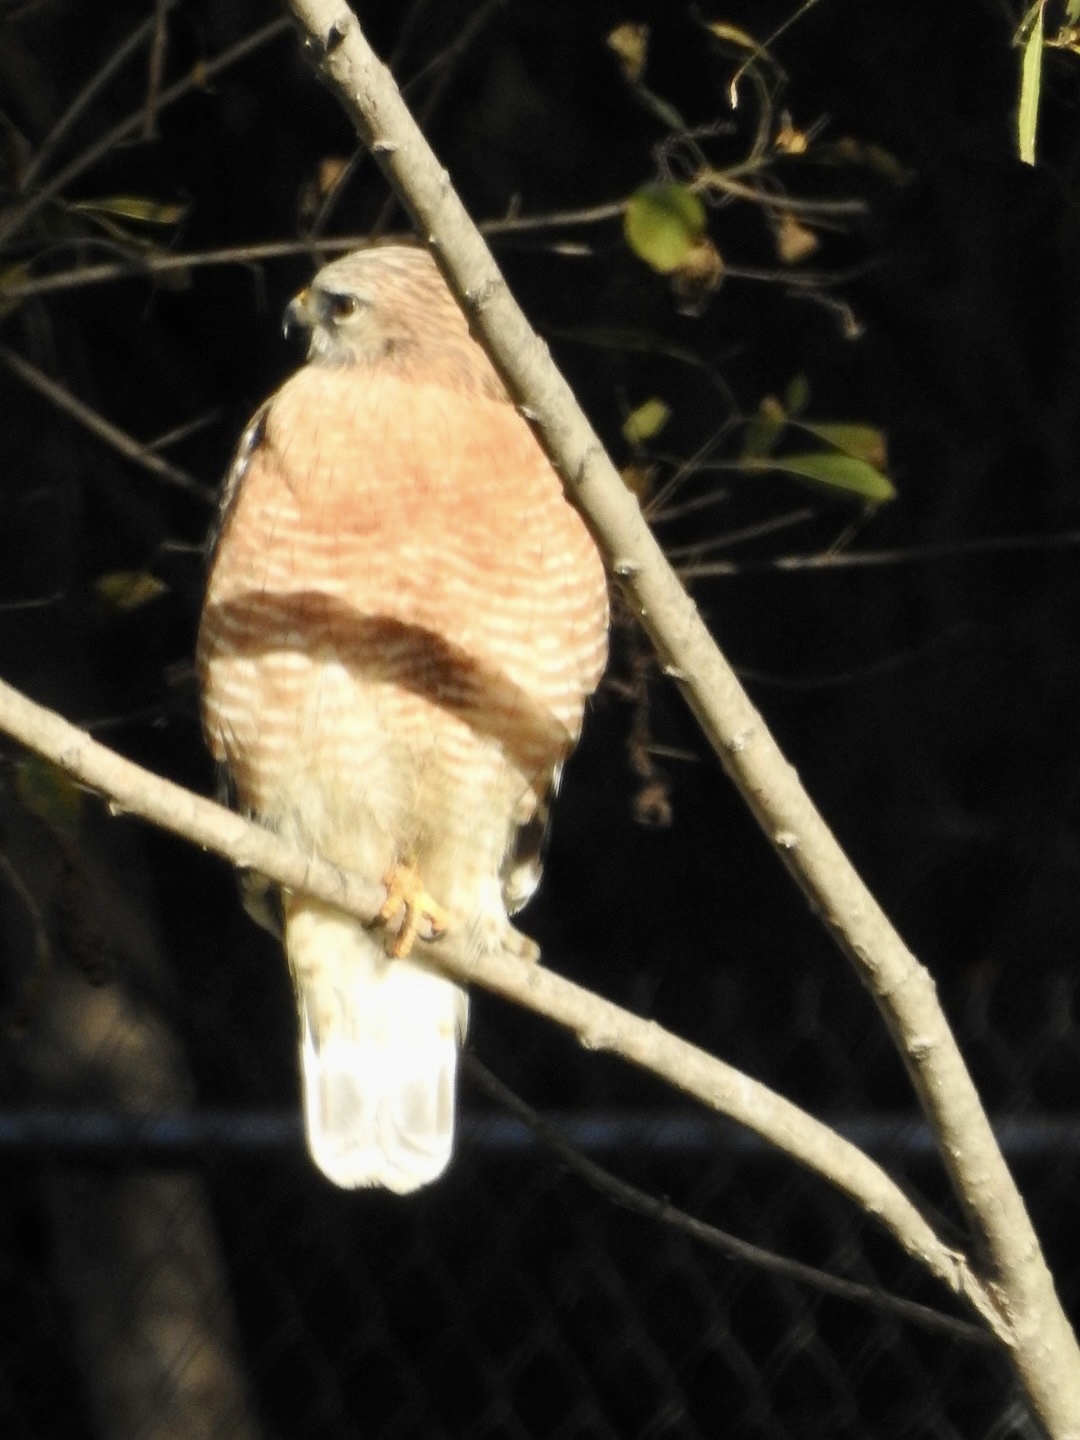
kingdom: Animalia
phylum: Chordata
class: Aves
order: Accipitriformes
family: Accipitridae
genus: Buteo
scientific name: Buteo lineatus
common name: Red-shouldered hawk
